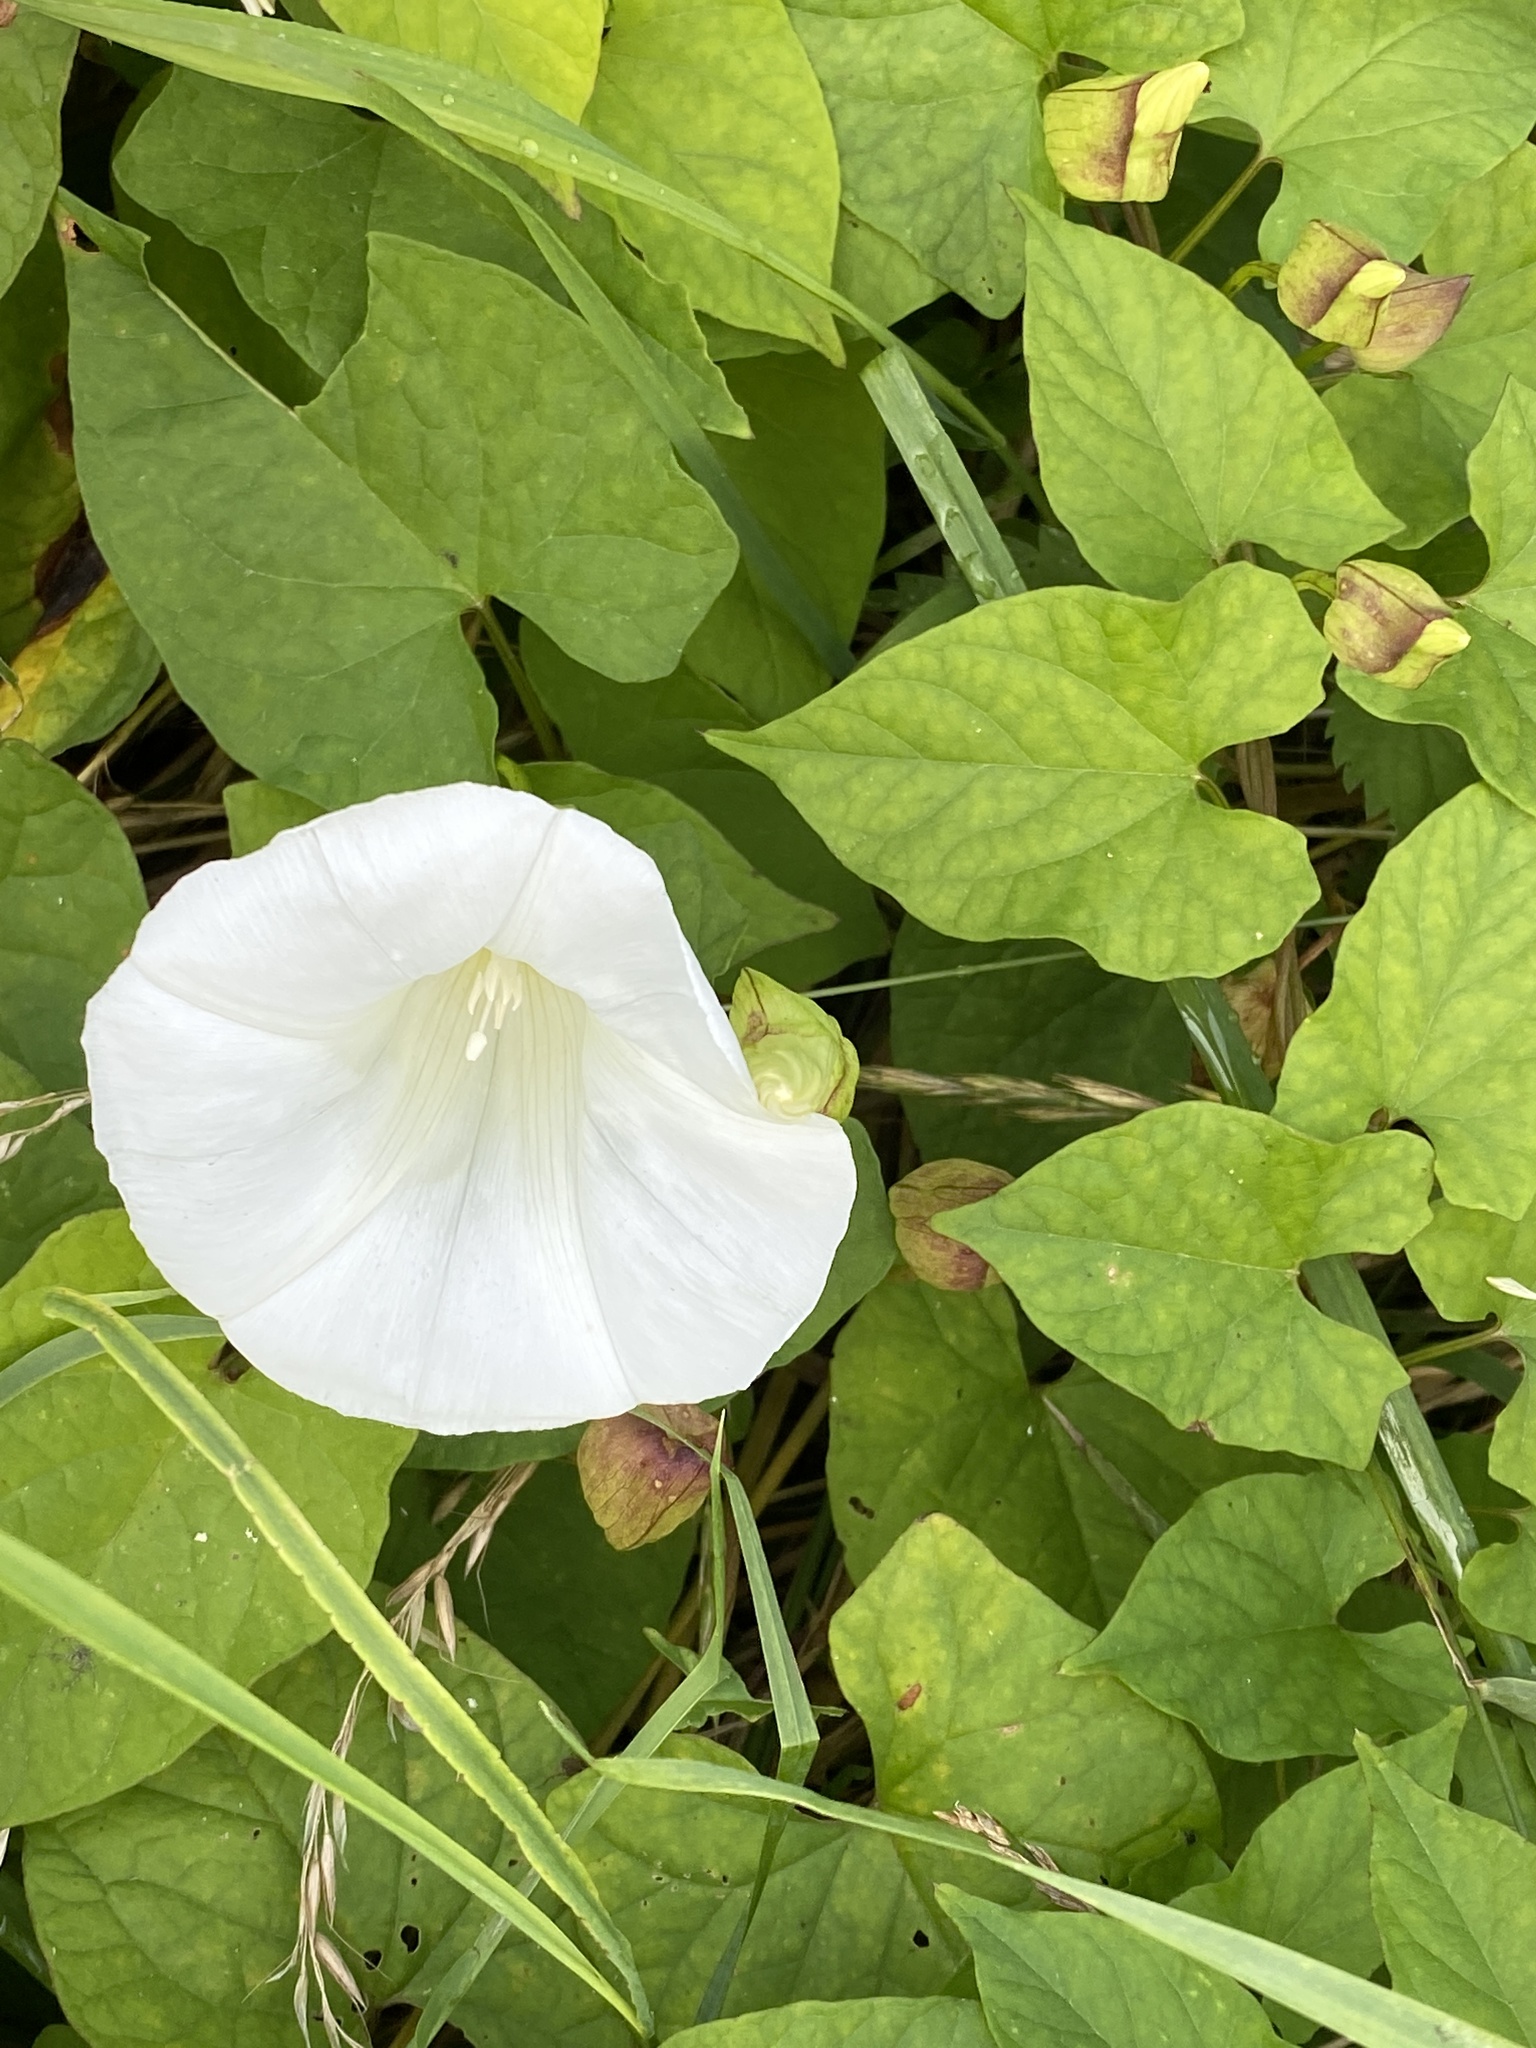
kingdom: Plantae
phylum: Tracheophyta
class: Magnoliopsida
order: Solanales
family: Convolvulaceae
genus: Calystegia
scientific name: Calystegia silvatica
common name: Large bindweed
